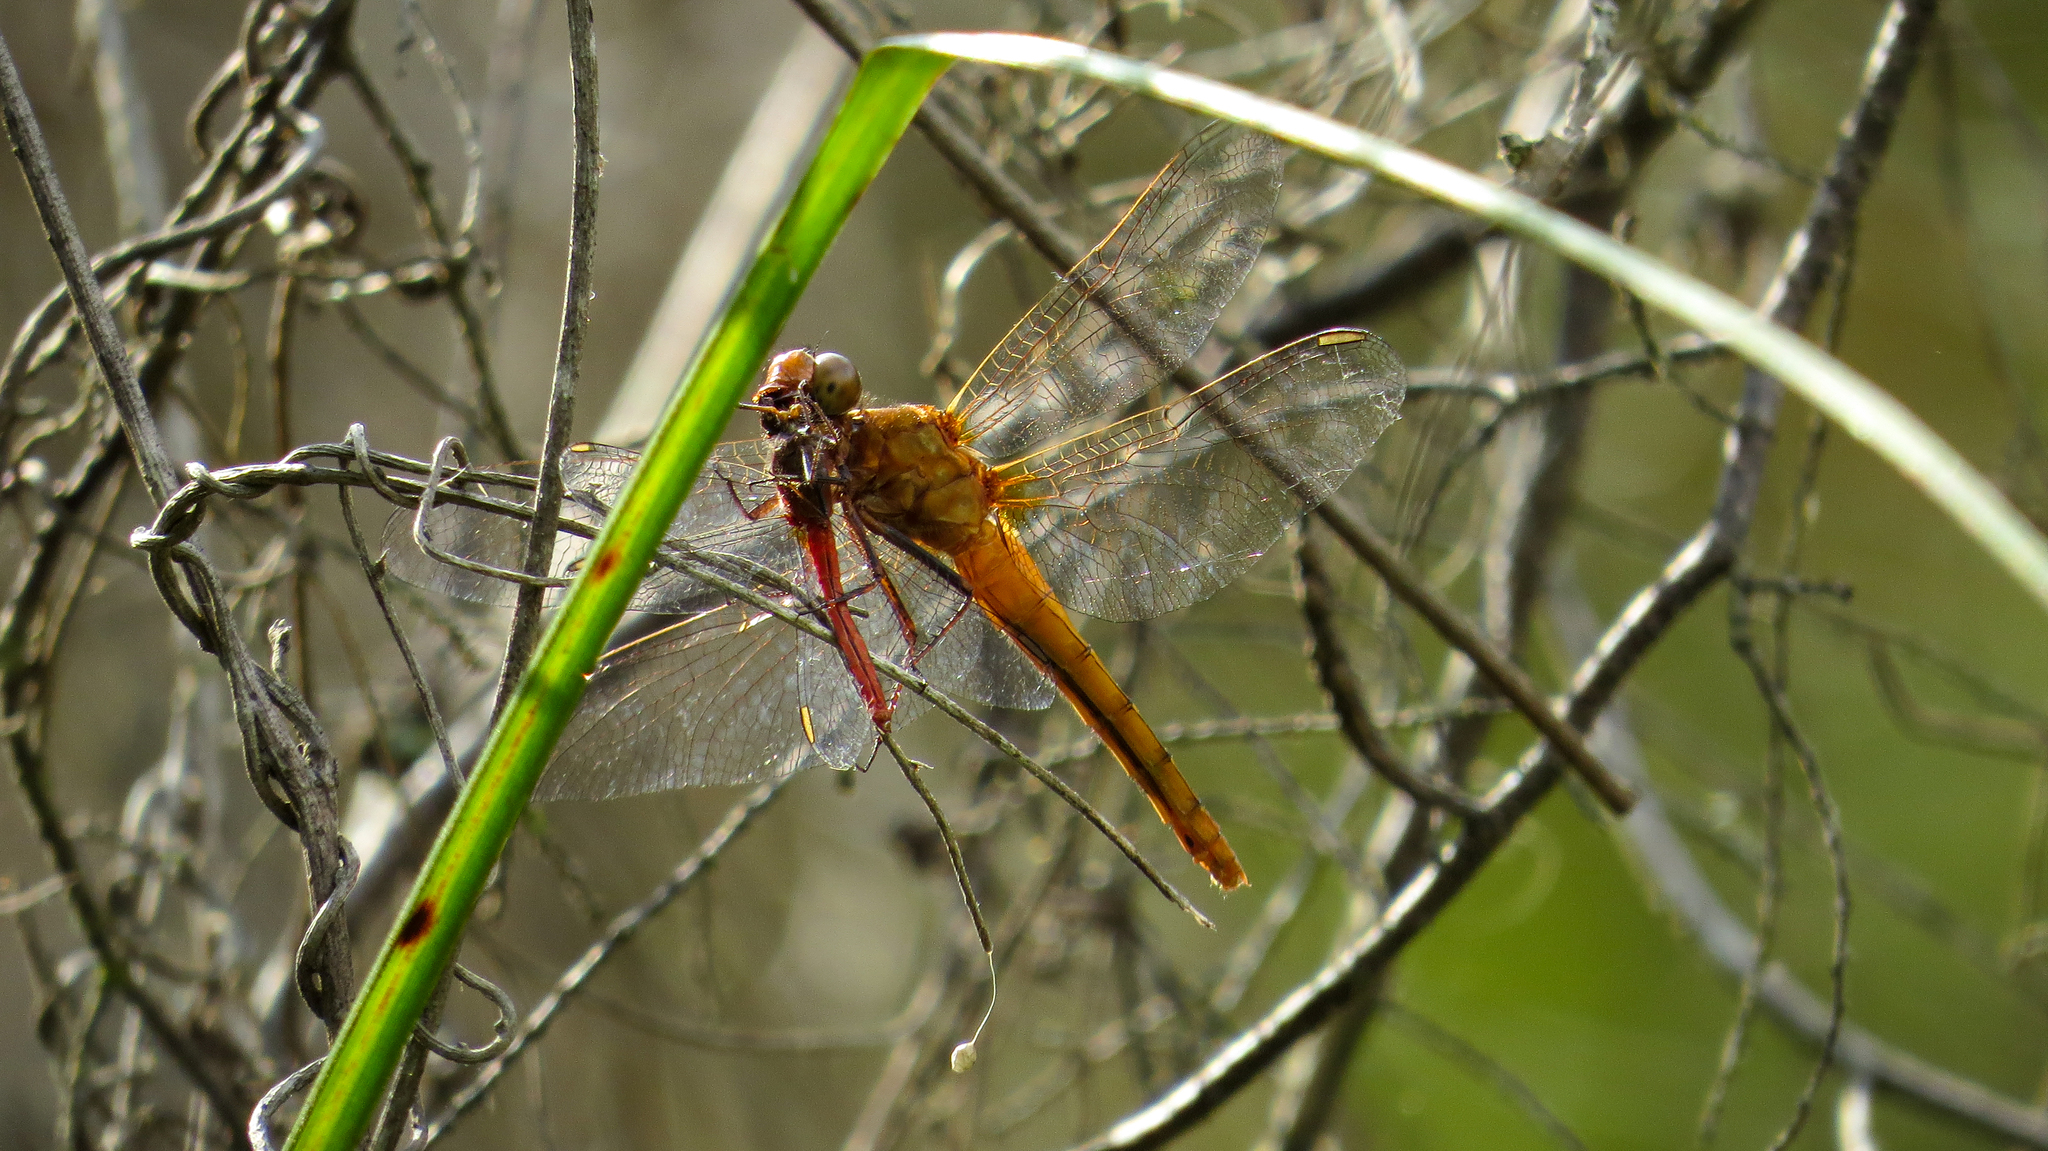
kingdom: Animalia
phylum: Arthropoda
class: Insecta
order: Odonata
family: Libellulidae
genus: Rhodothemis
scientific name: Rhodothemis lieftincki
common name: Red arrow
